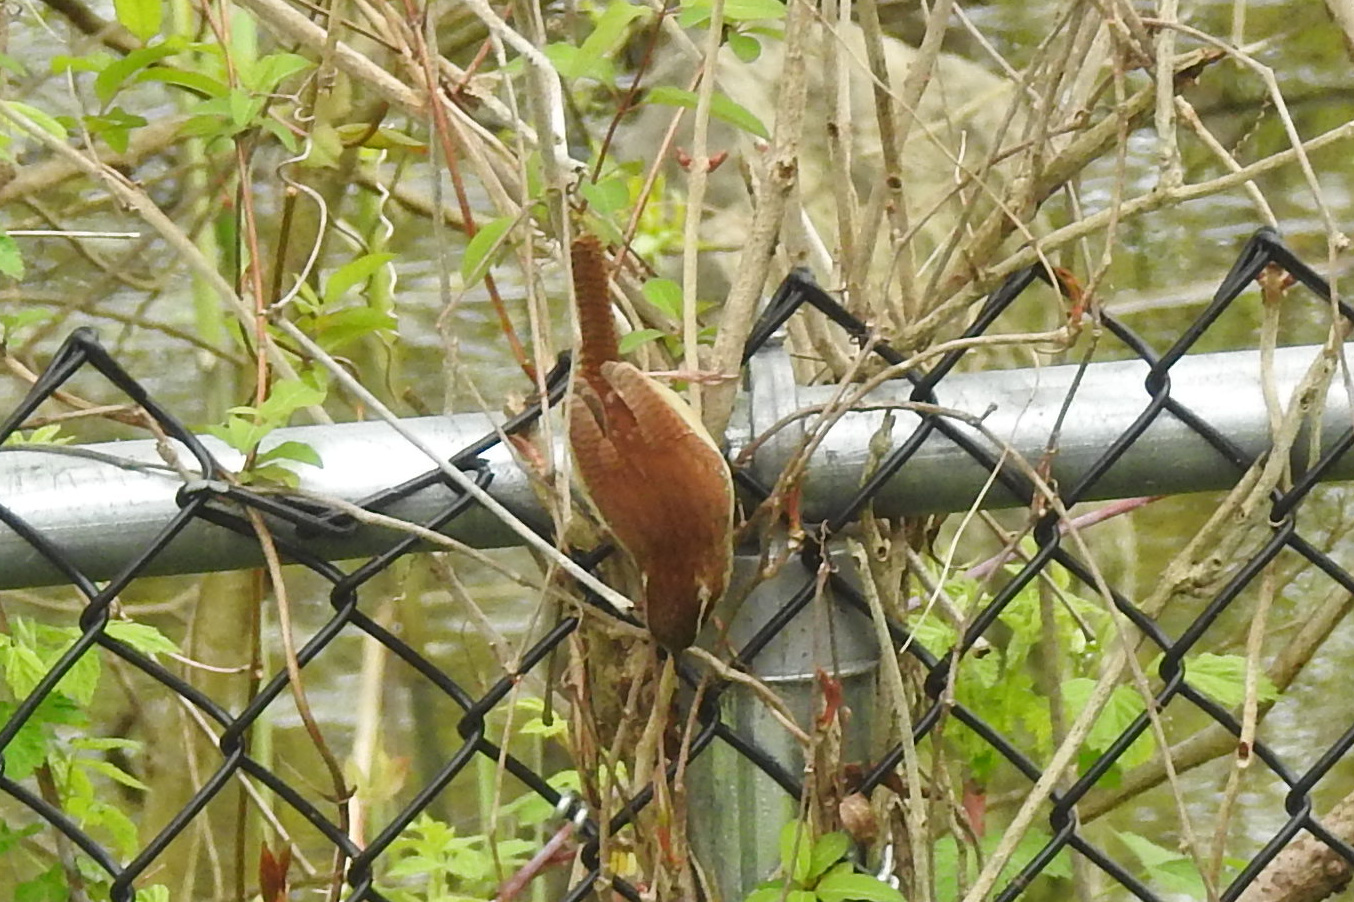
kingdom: Animalia
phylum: Chordata
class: Aves
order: Passeriformes
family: Troglodytidae
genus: Thryothorus
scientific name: Thryothorus ludovicianus
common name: Carolina wren
